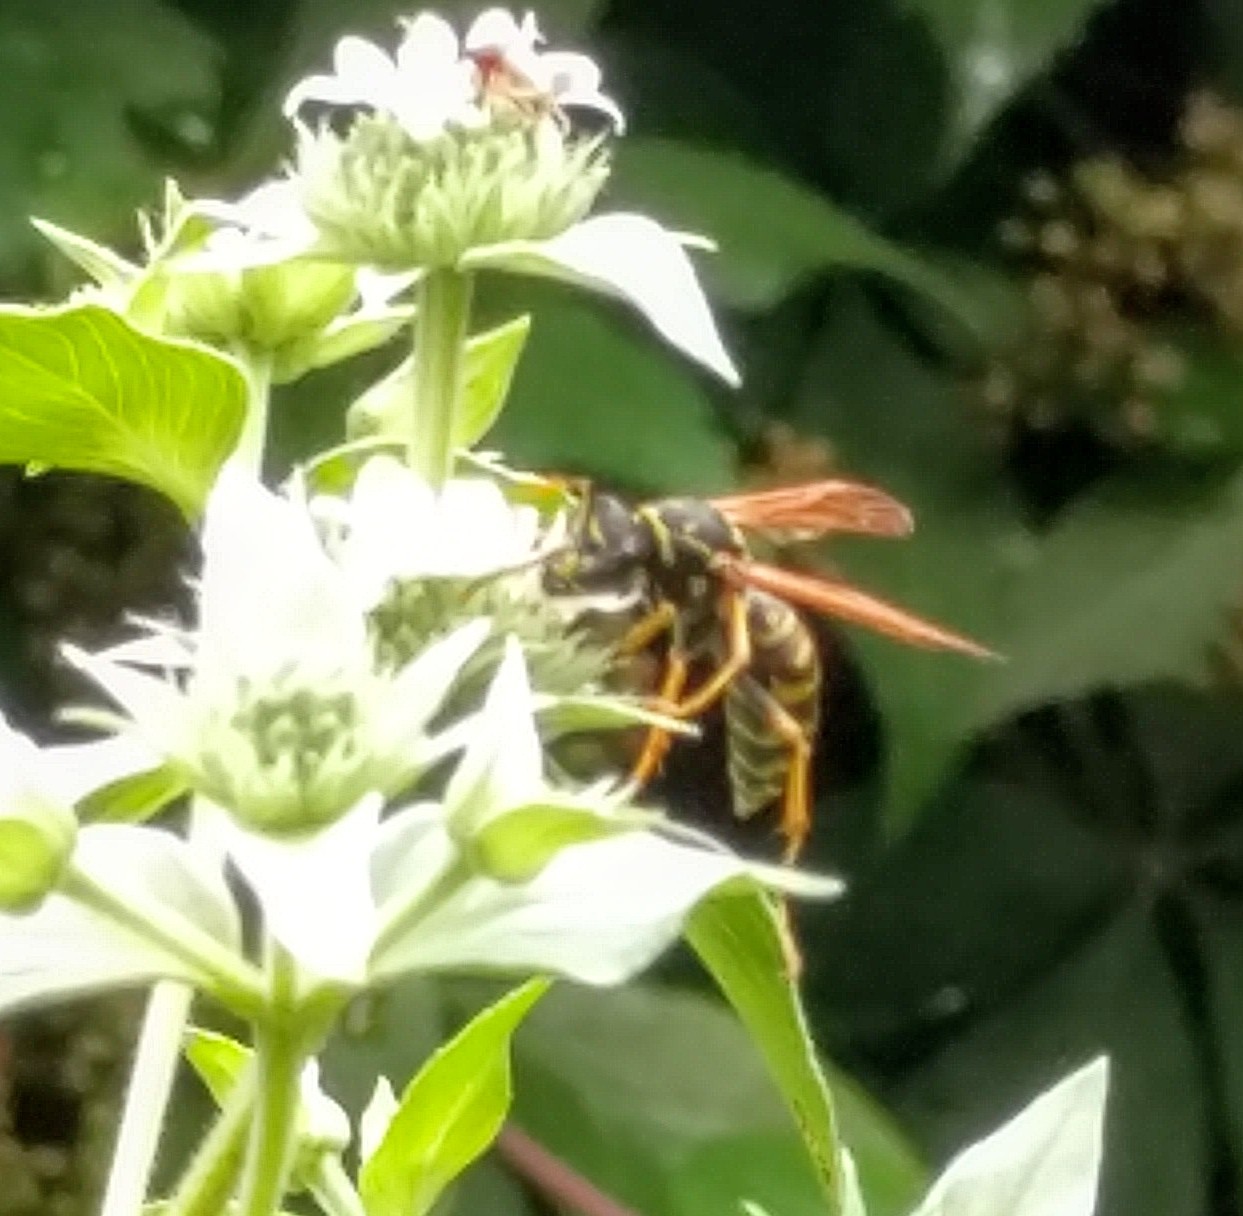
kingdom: Animalia
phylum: Arthropoda
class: Insecta
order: Hymenoptera
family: Eumenidae
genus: Polistes
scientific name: Polistes dominula
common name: Paper wasp
